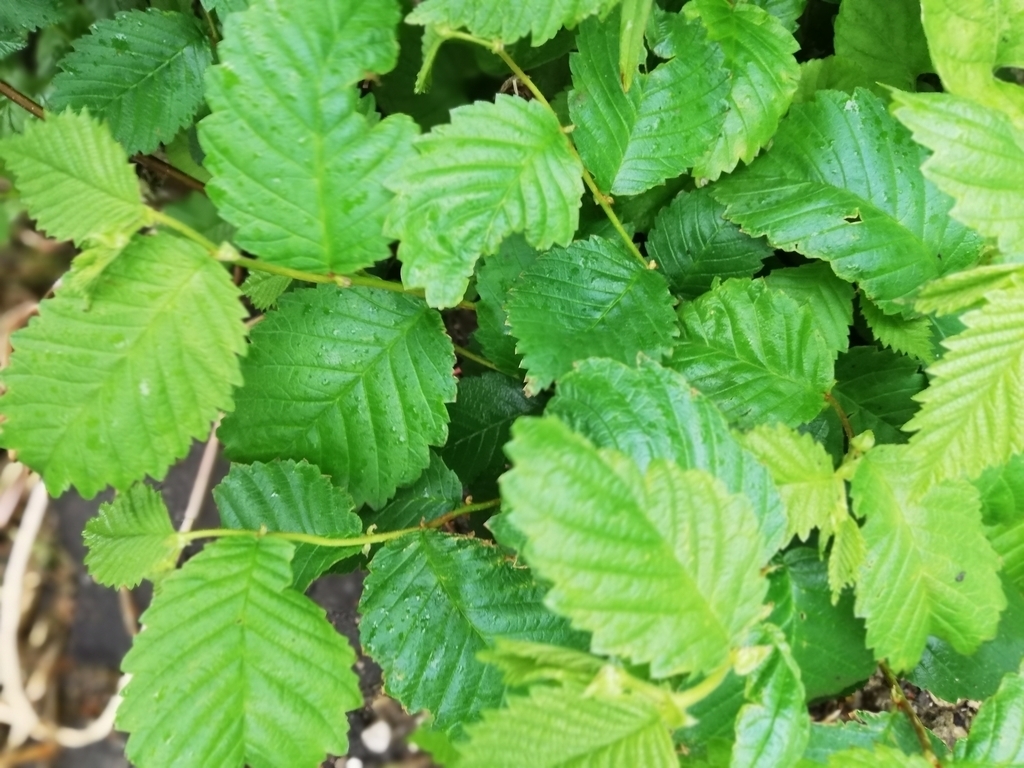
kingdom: Plantae
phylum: Tracheophyta
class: Magnoliopsida
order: Rosales
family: Ulmaceae
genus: Ulmus
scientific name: Ulmus laevis
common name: European white-elm
